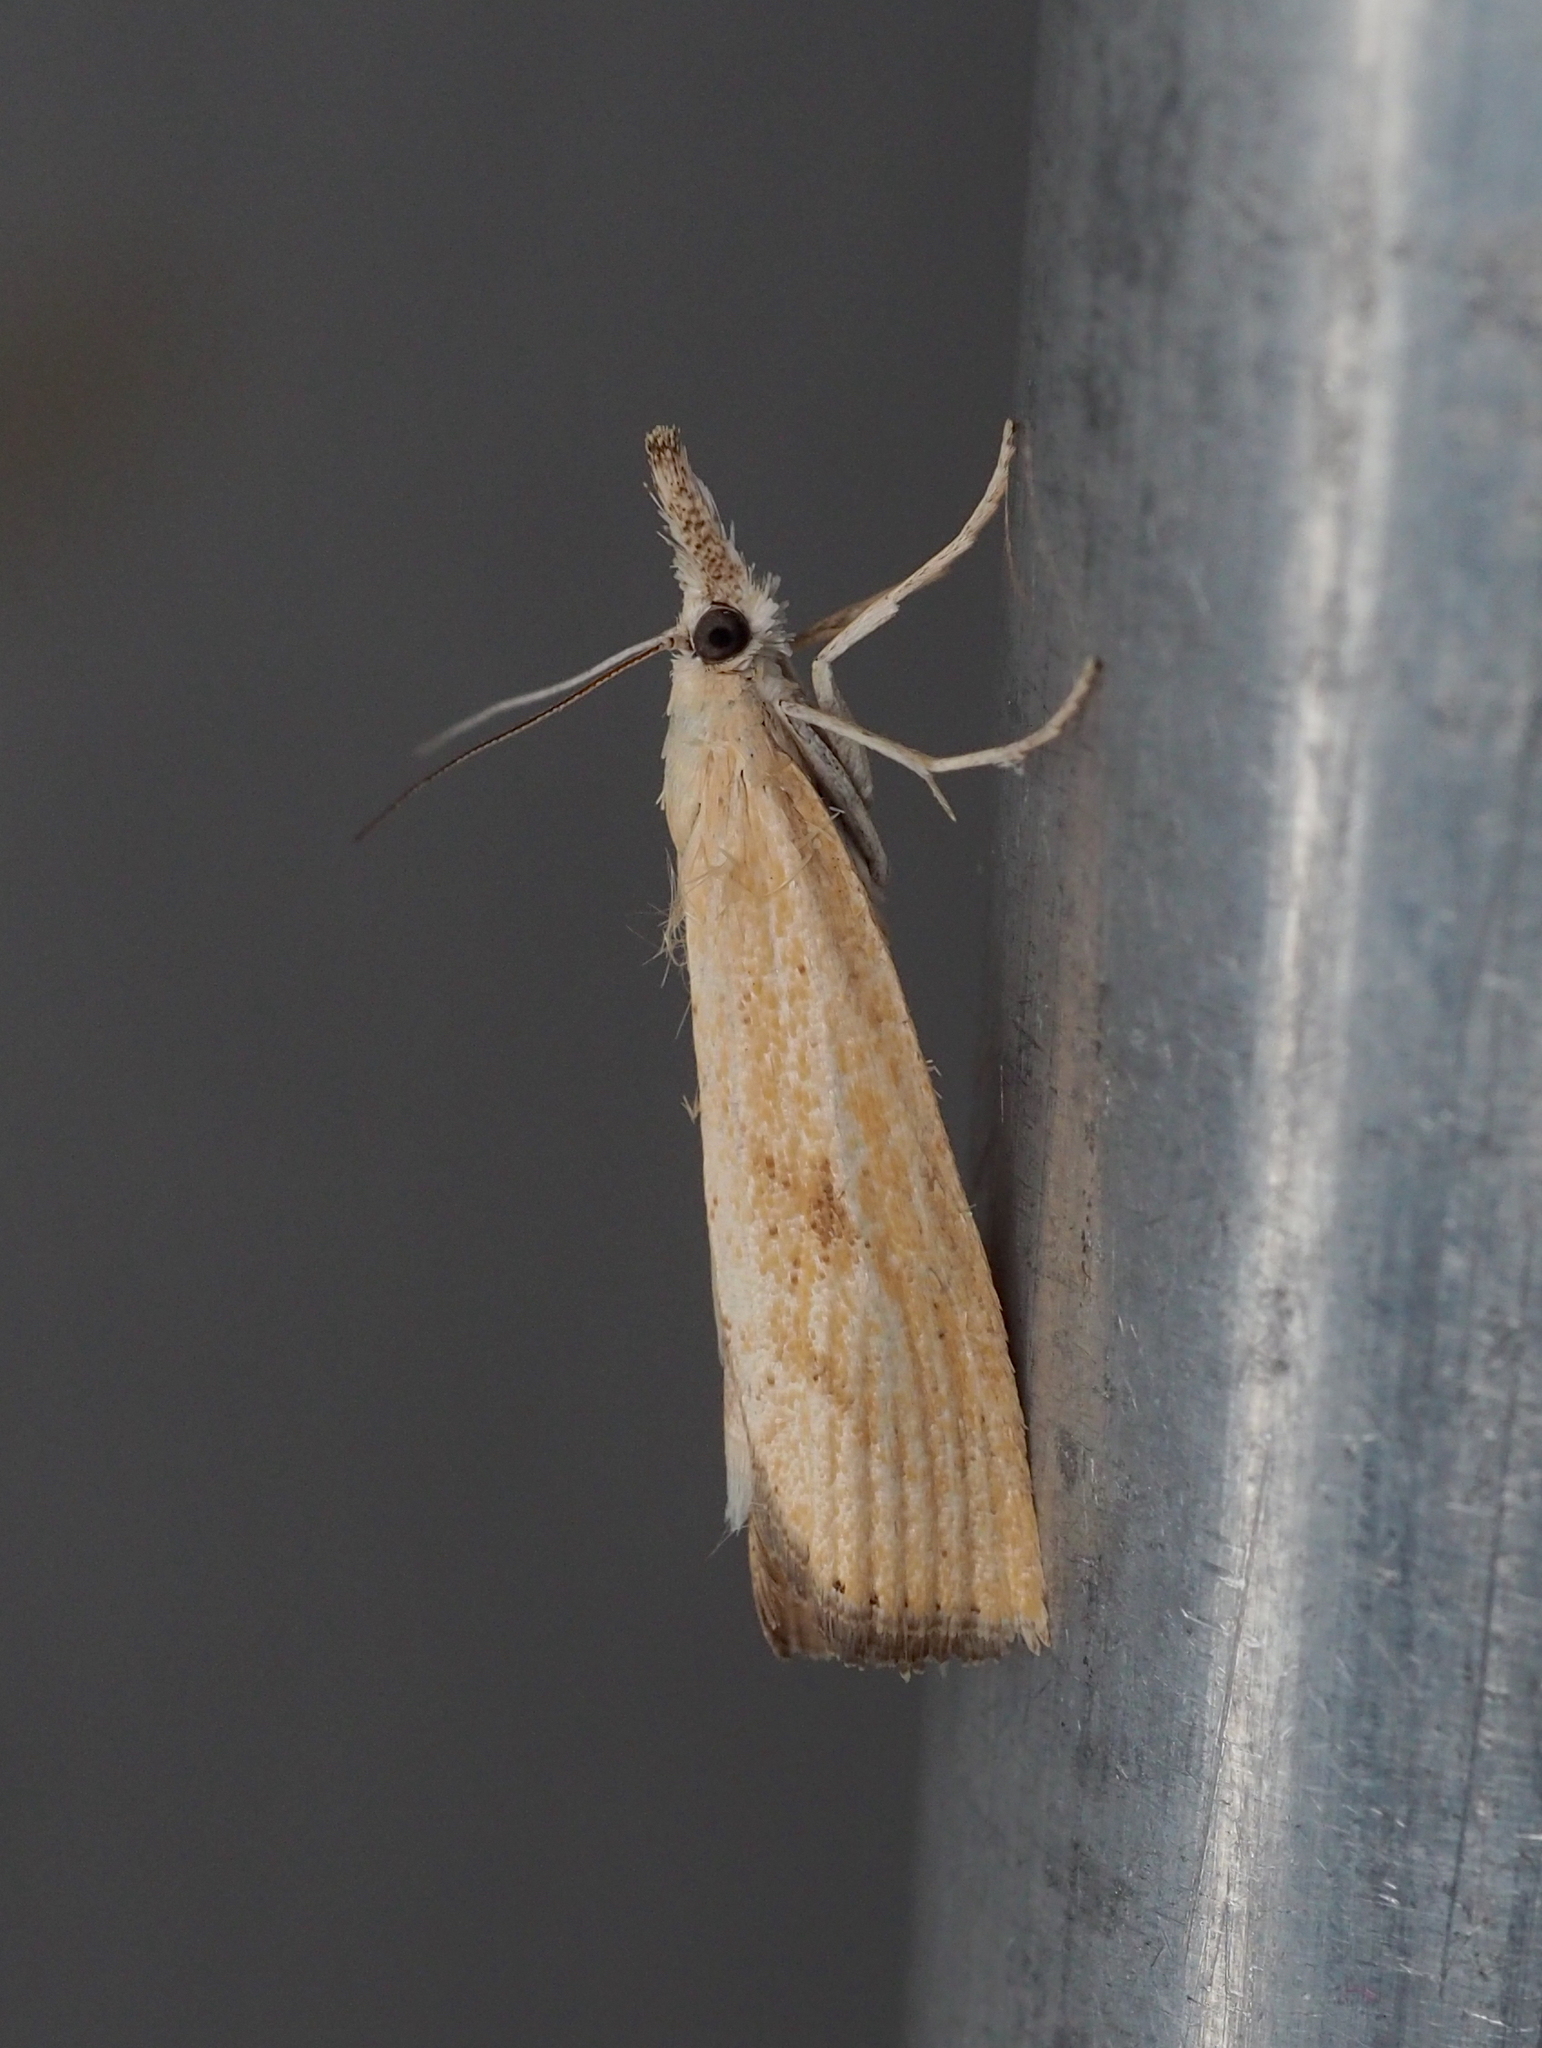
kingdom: Animalia
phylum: Arthropoda
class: Insecta
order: Lepidoptera
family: Crambidae
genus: Agriphila
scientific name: Agriphila inquinatella
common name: Barred grass-veneer
